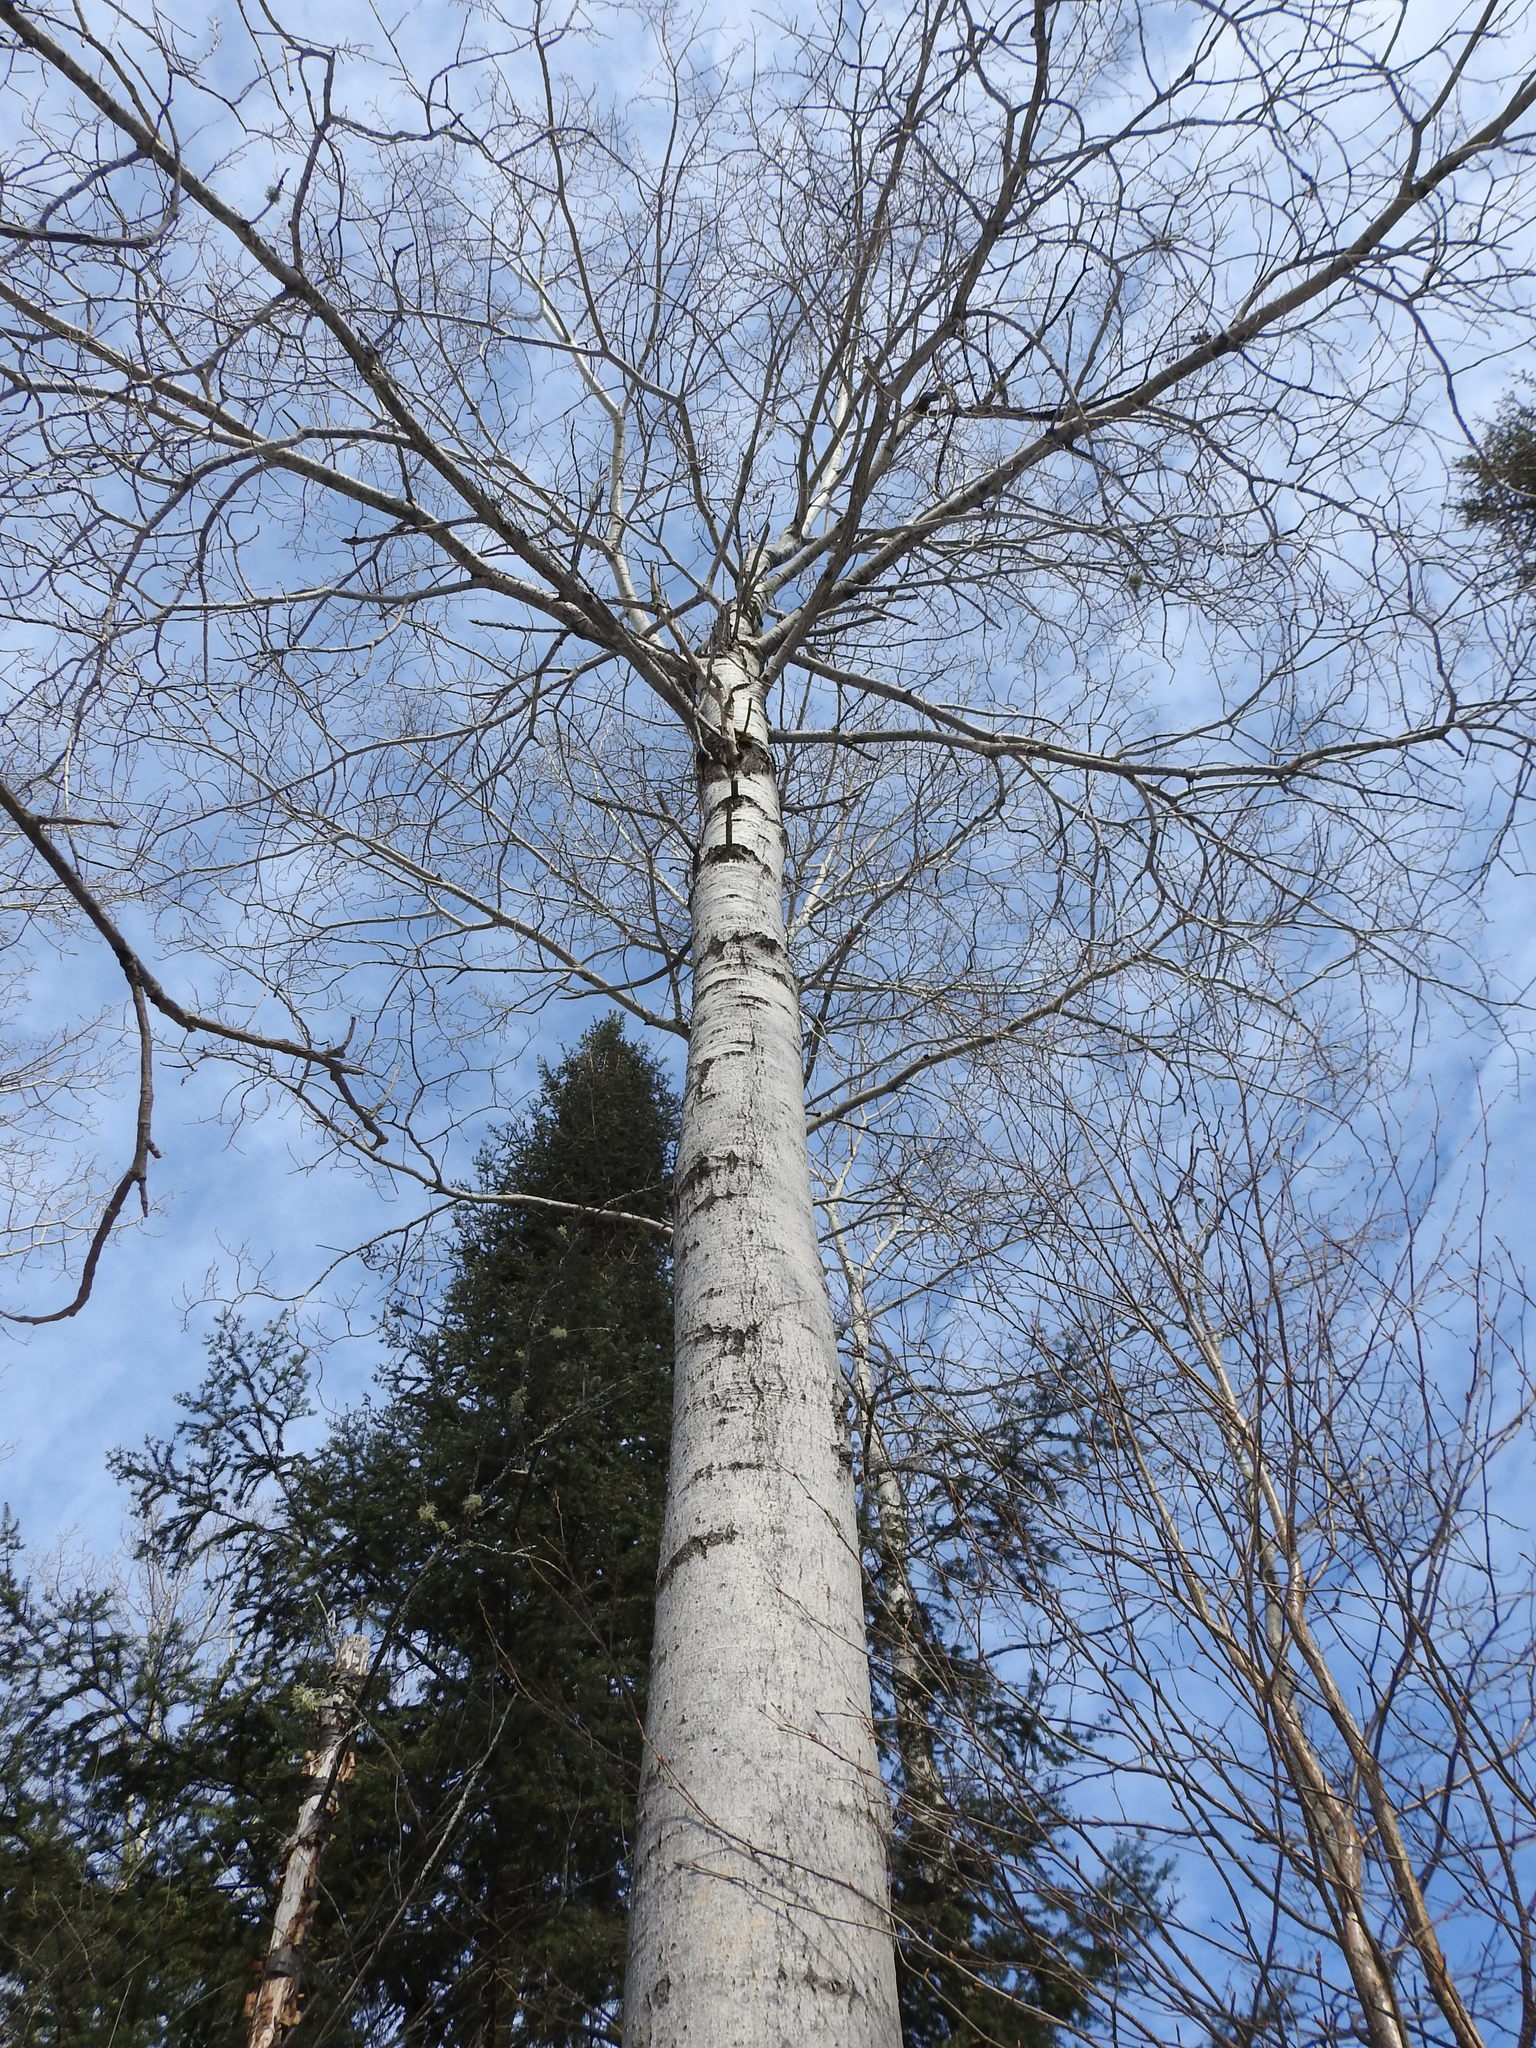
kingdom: Plantae
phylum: Tracheophyta
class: Magnoliopsida
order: Malpighiales
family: Salicaceae
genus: Populus
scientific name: Populus tremuloides
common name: Quaking aspen
